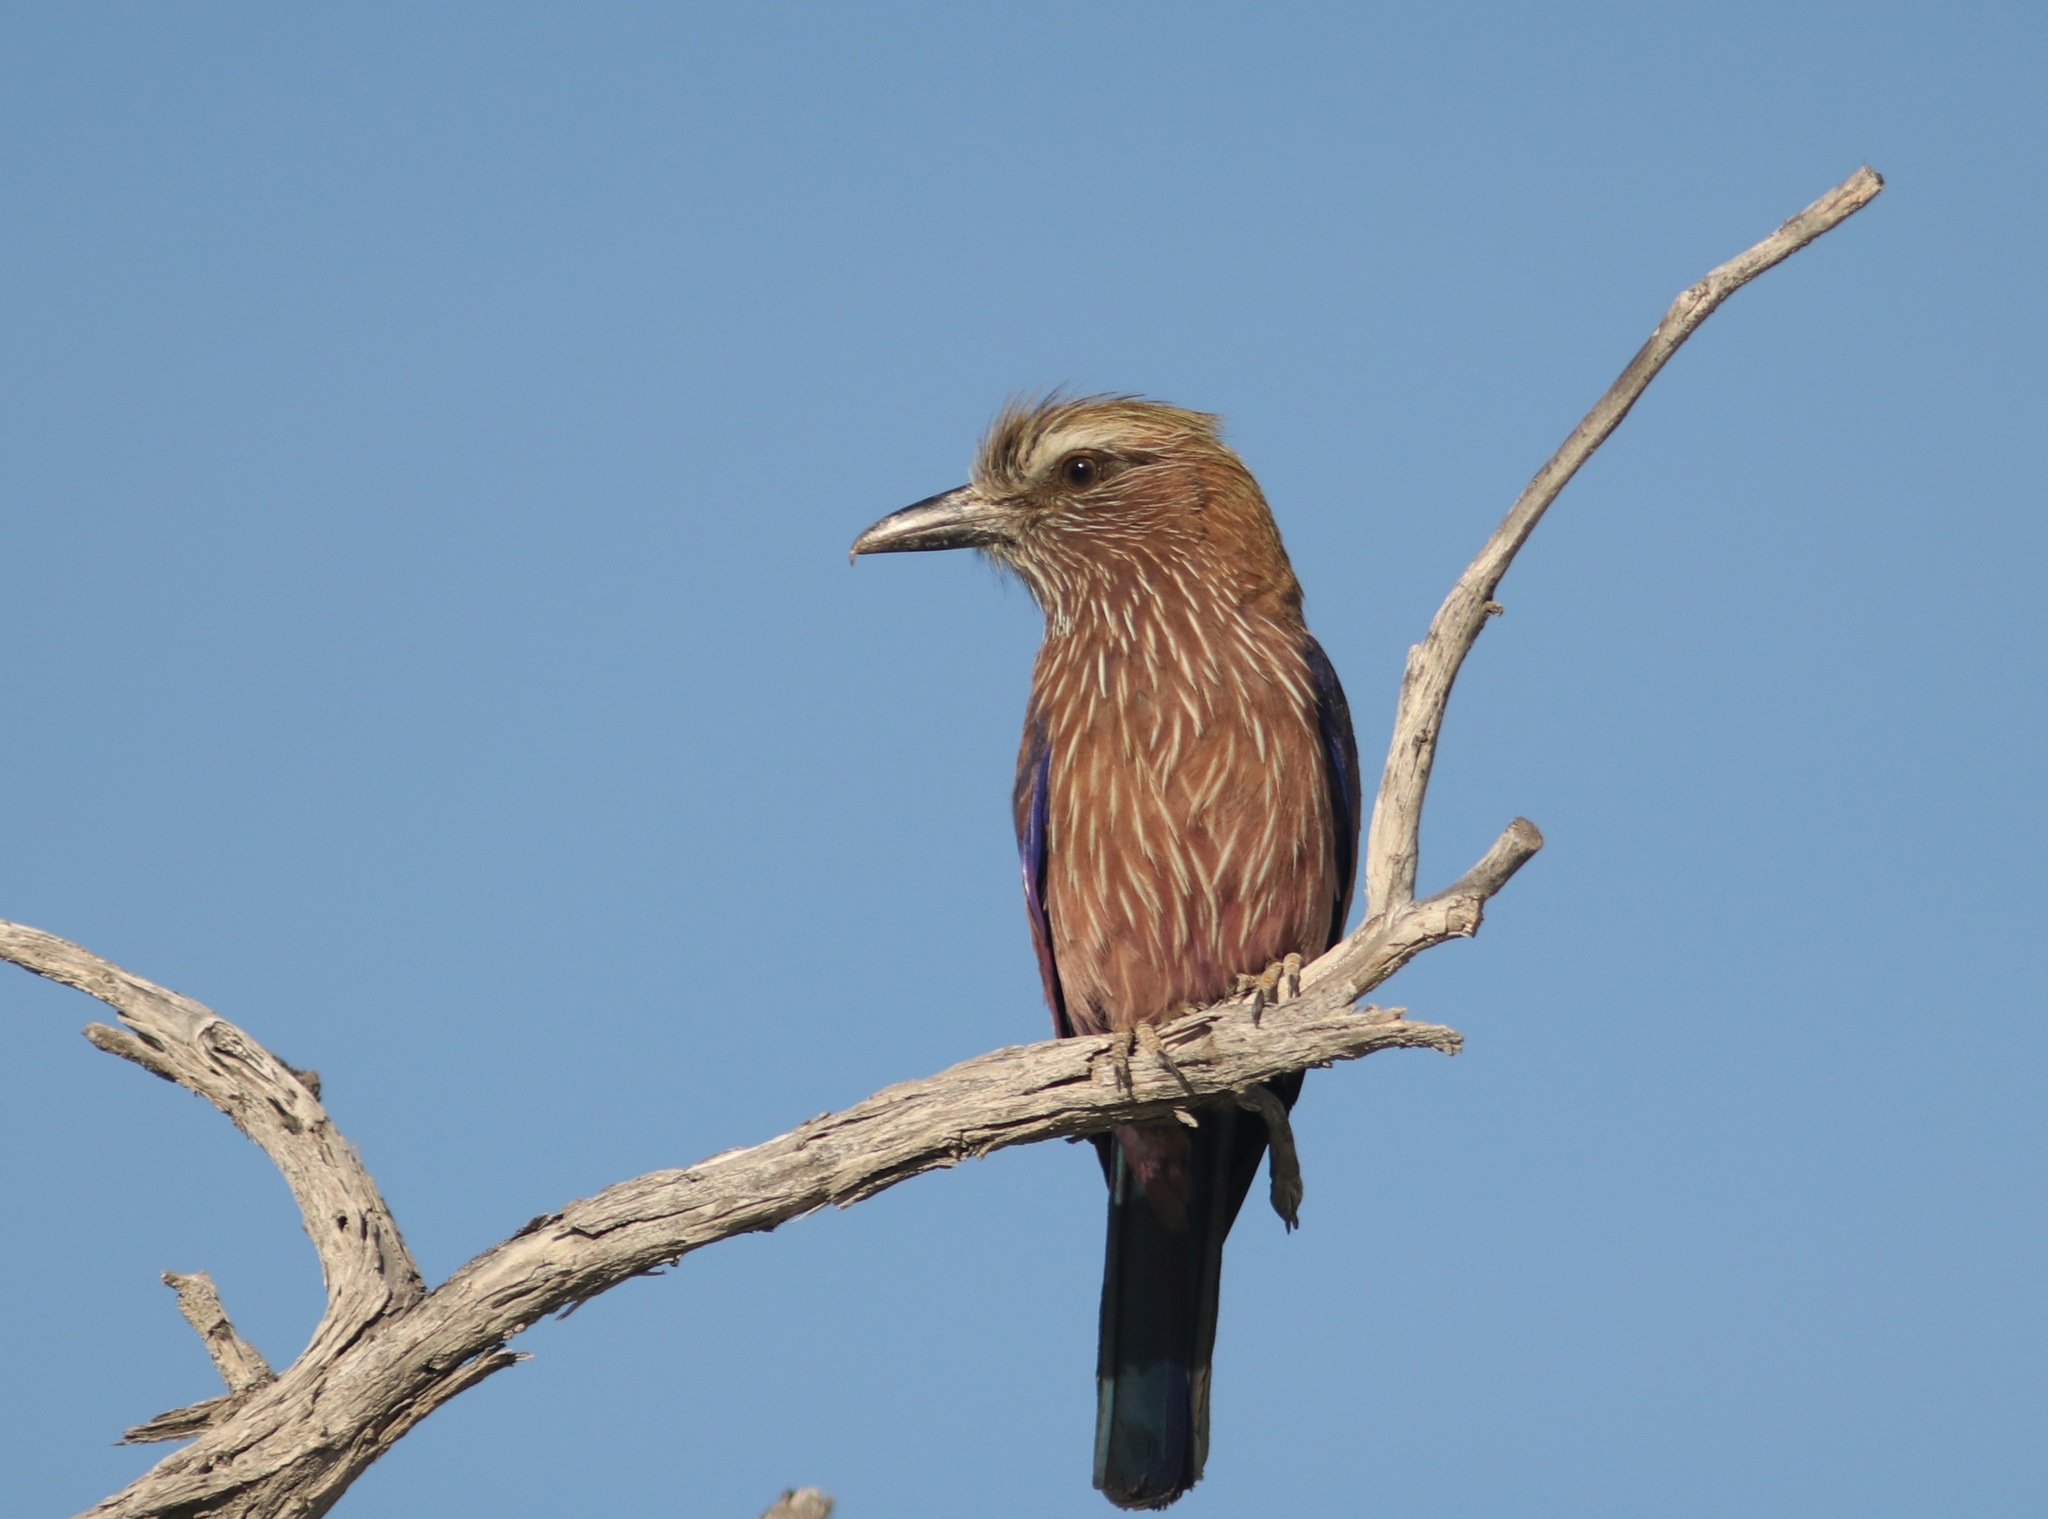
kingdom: Animalia
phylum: Chordata
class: Aves
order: Coraciiformes
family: Coraciidae
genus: Coracias
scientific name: Coracias naevius
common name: Purple roller
